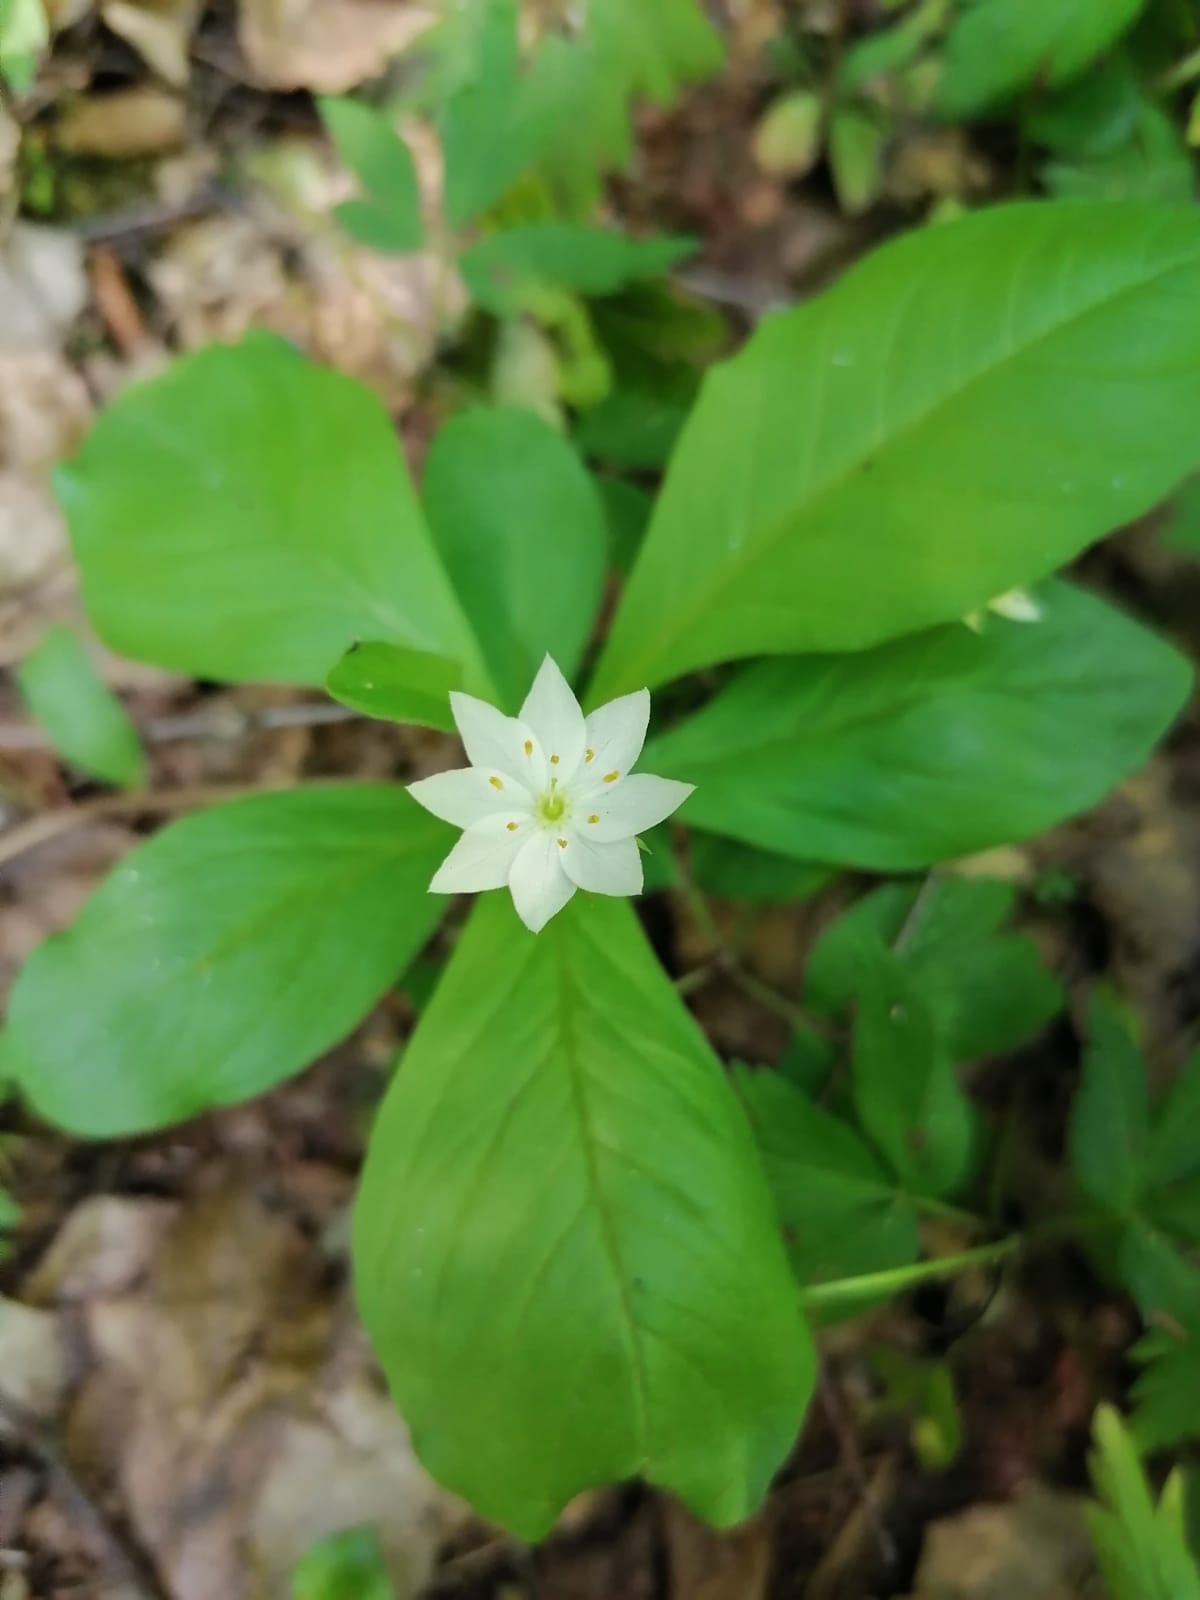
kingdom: Plantae
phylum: Tracheophyta
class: Magnoliopsida
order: Ericales
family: Primulaceae
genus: Lysimachia
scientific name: Lysimachia europaea
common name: Arctic starflower
